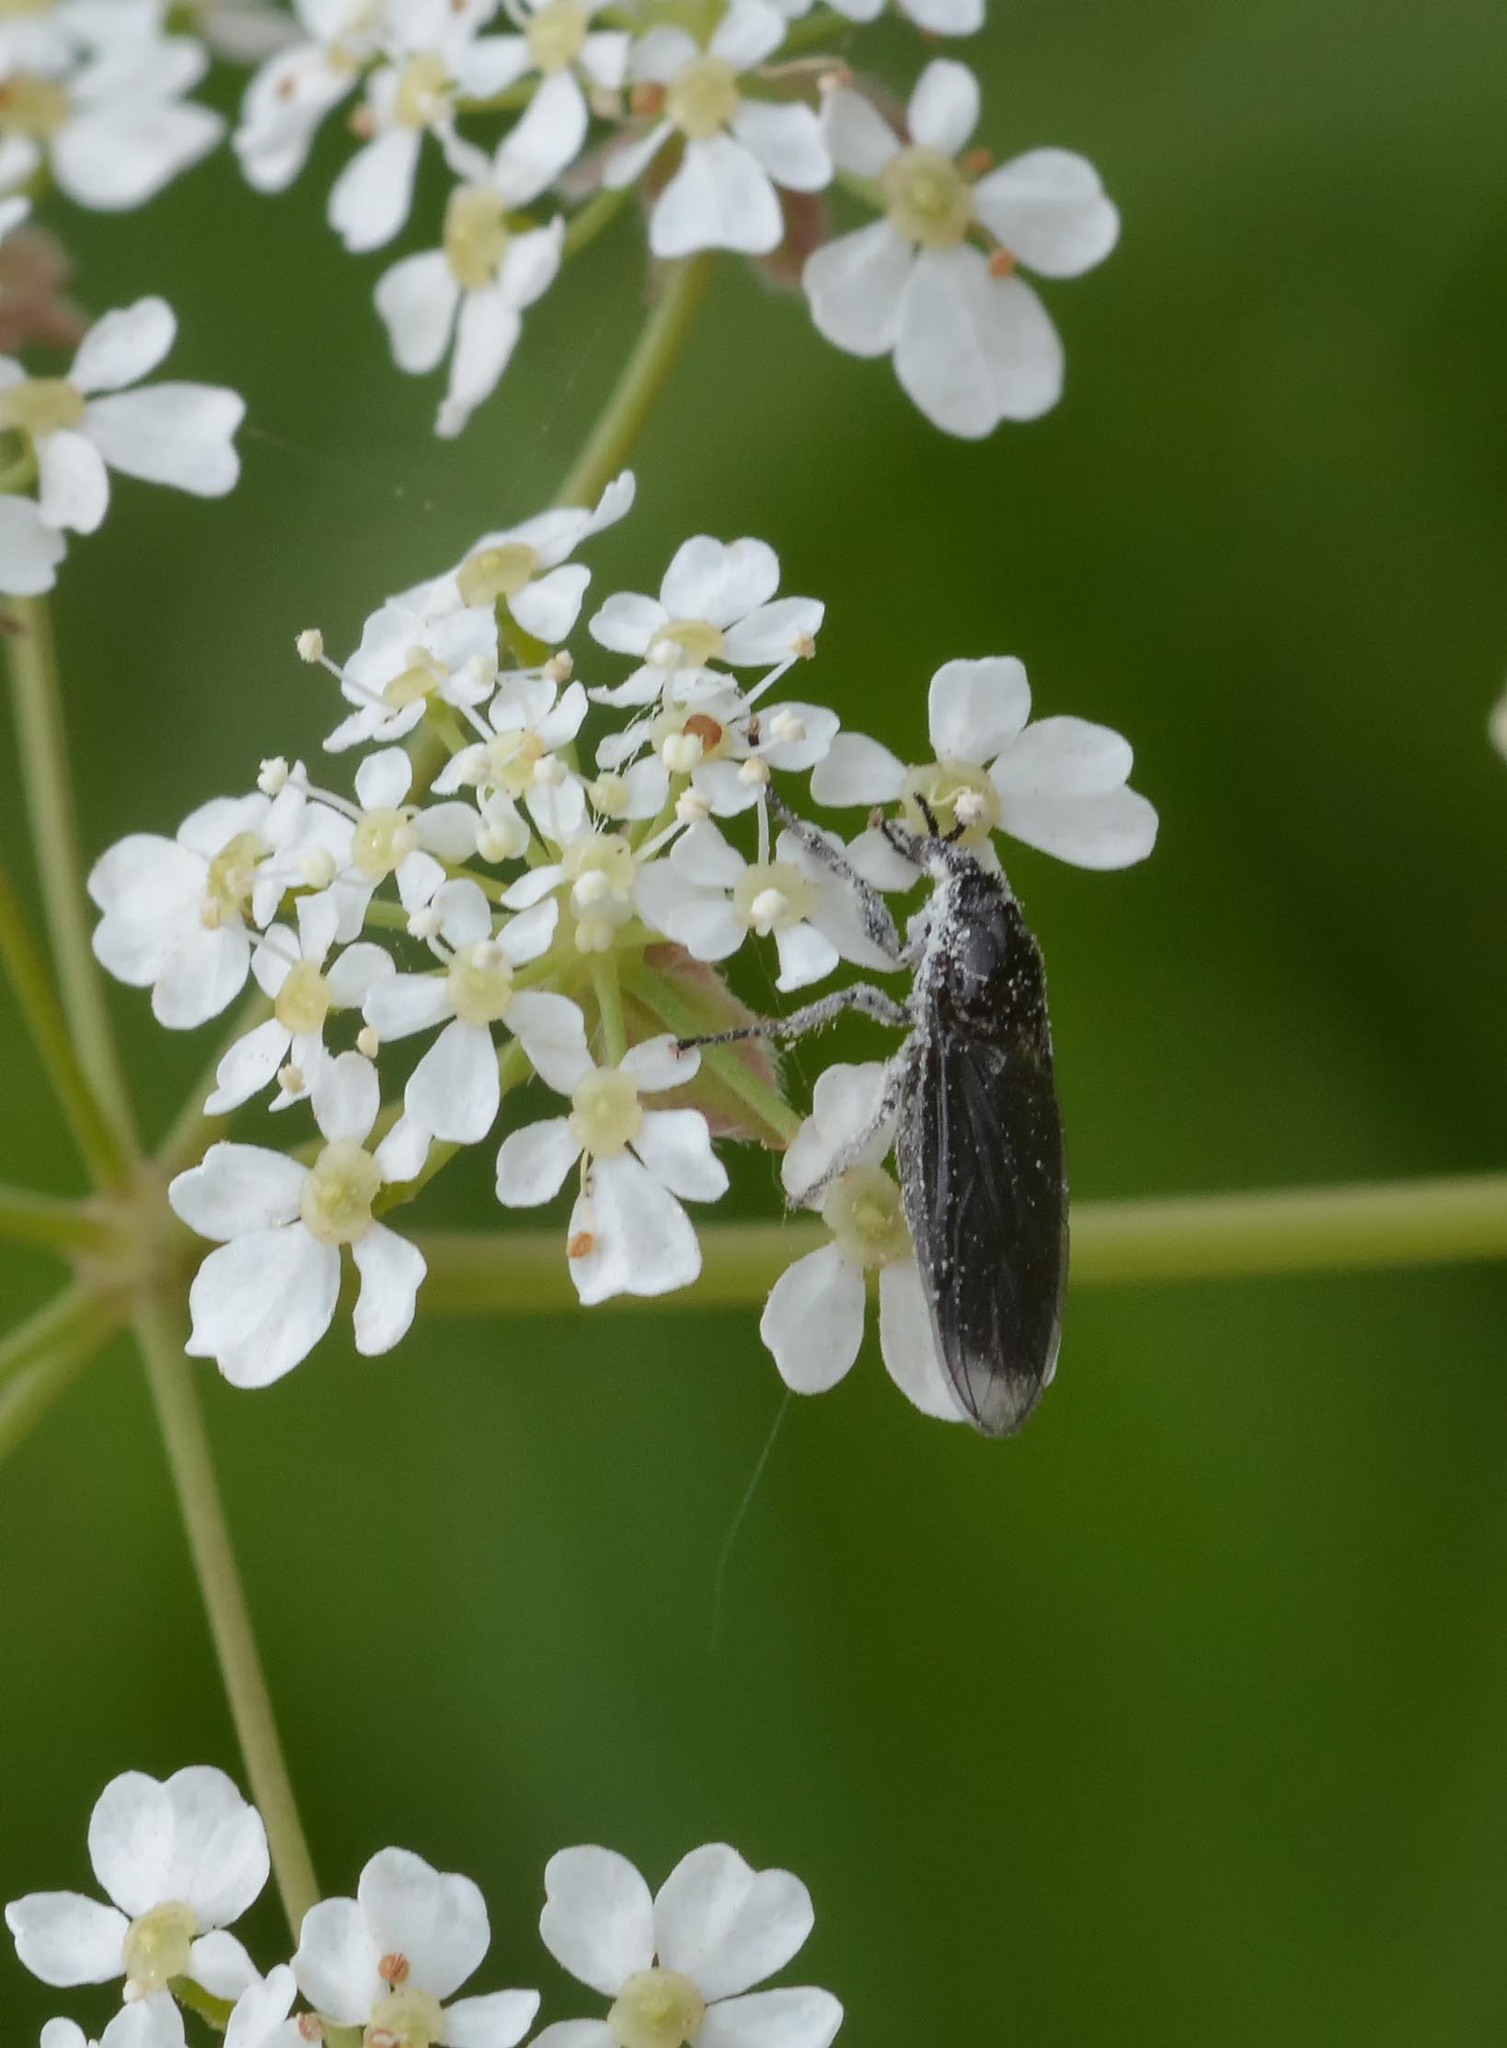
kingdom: Animalia
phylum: Arthropoda
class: Insecta
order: Diptera
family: Bibionidae
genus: Dilophus
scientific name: Dilophus febrilis
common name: Fever fly
